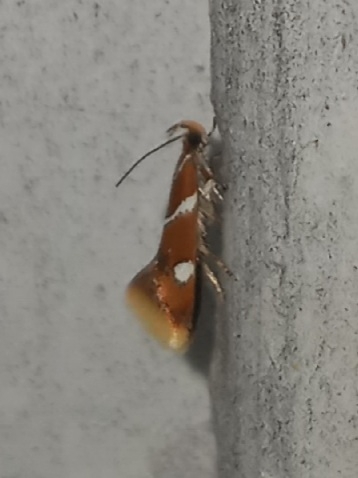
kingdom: Animalia
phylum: Arthropoda
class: Insecta
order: Lepidoptera
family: Oecophoridae
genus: Promalactis
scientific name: Promalactis suzukiella
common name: Moth
